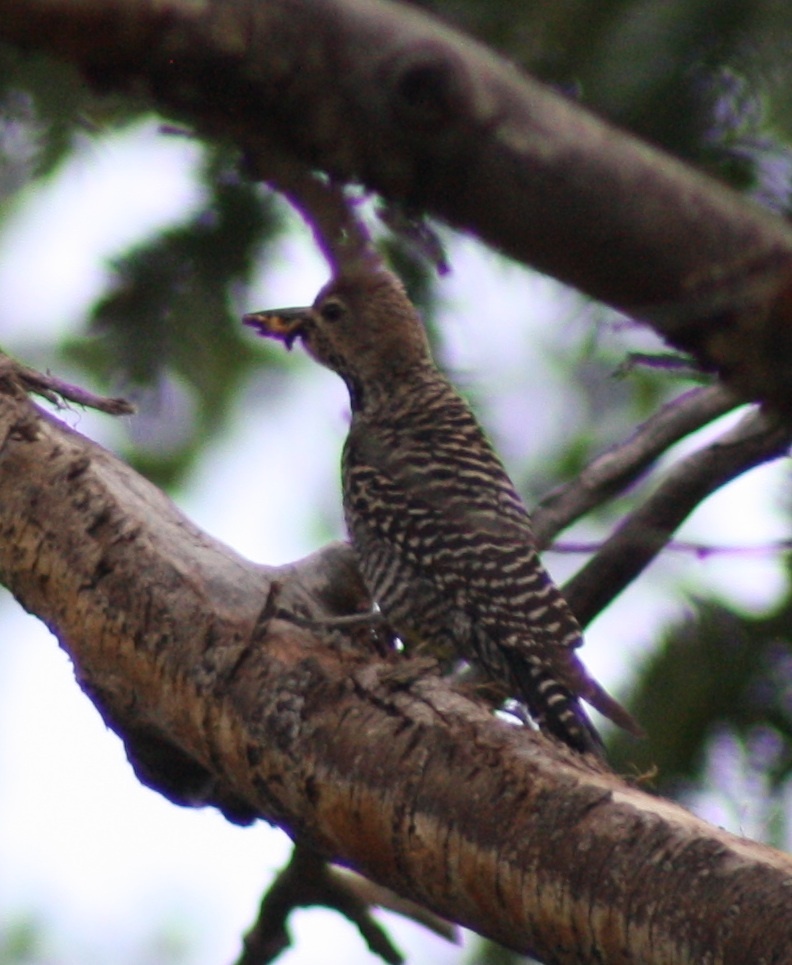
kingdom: Animalia
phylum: Chordata
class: Aves
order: Piciformes
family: Picidae
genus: Sphyrapicus
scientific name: Sphyrapicus thyroideus
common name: Williamson's sapsucker
